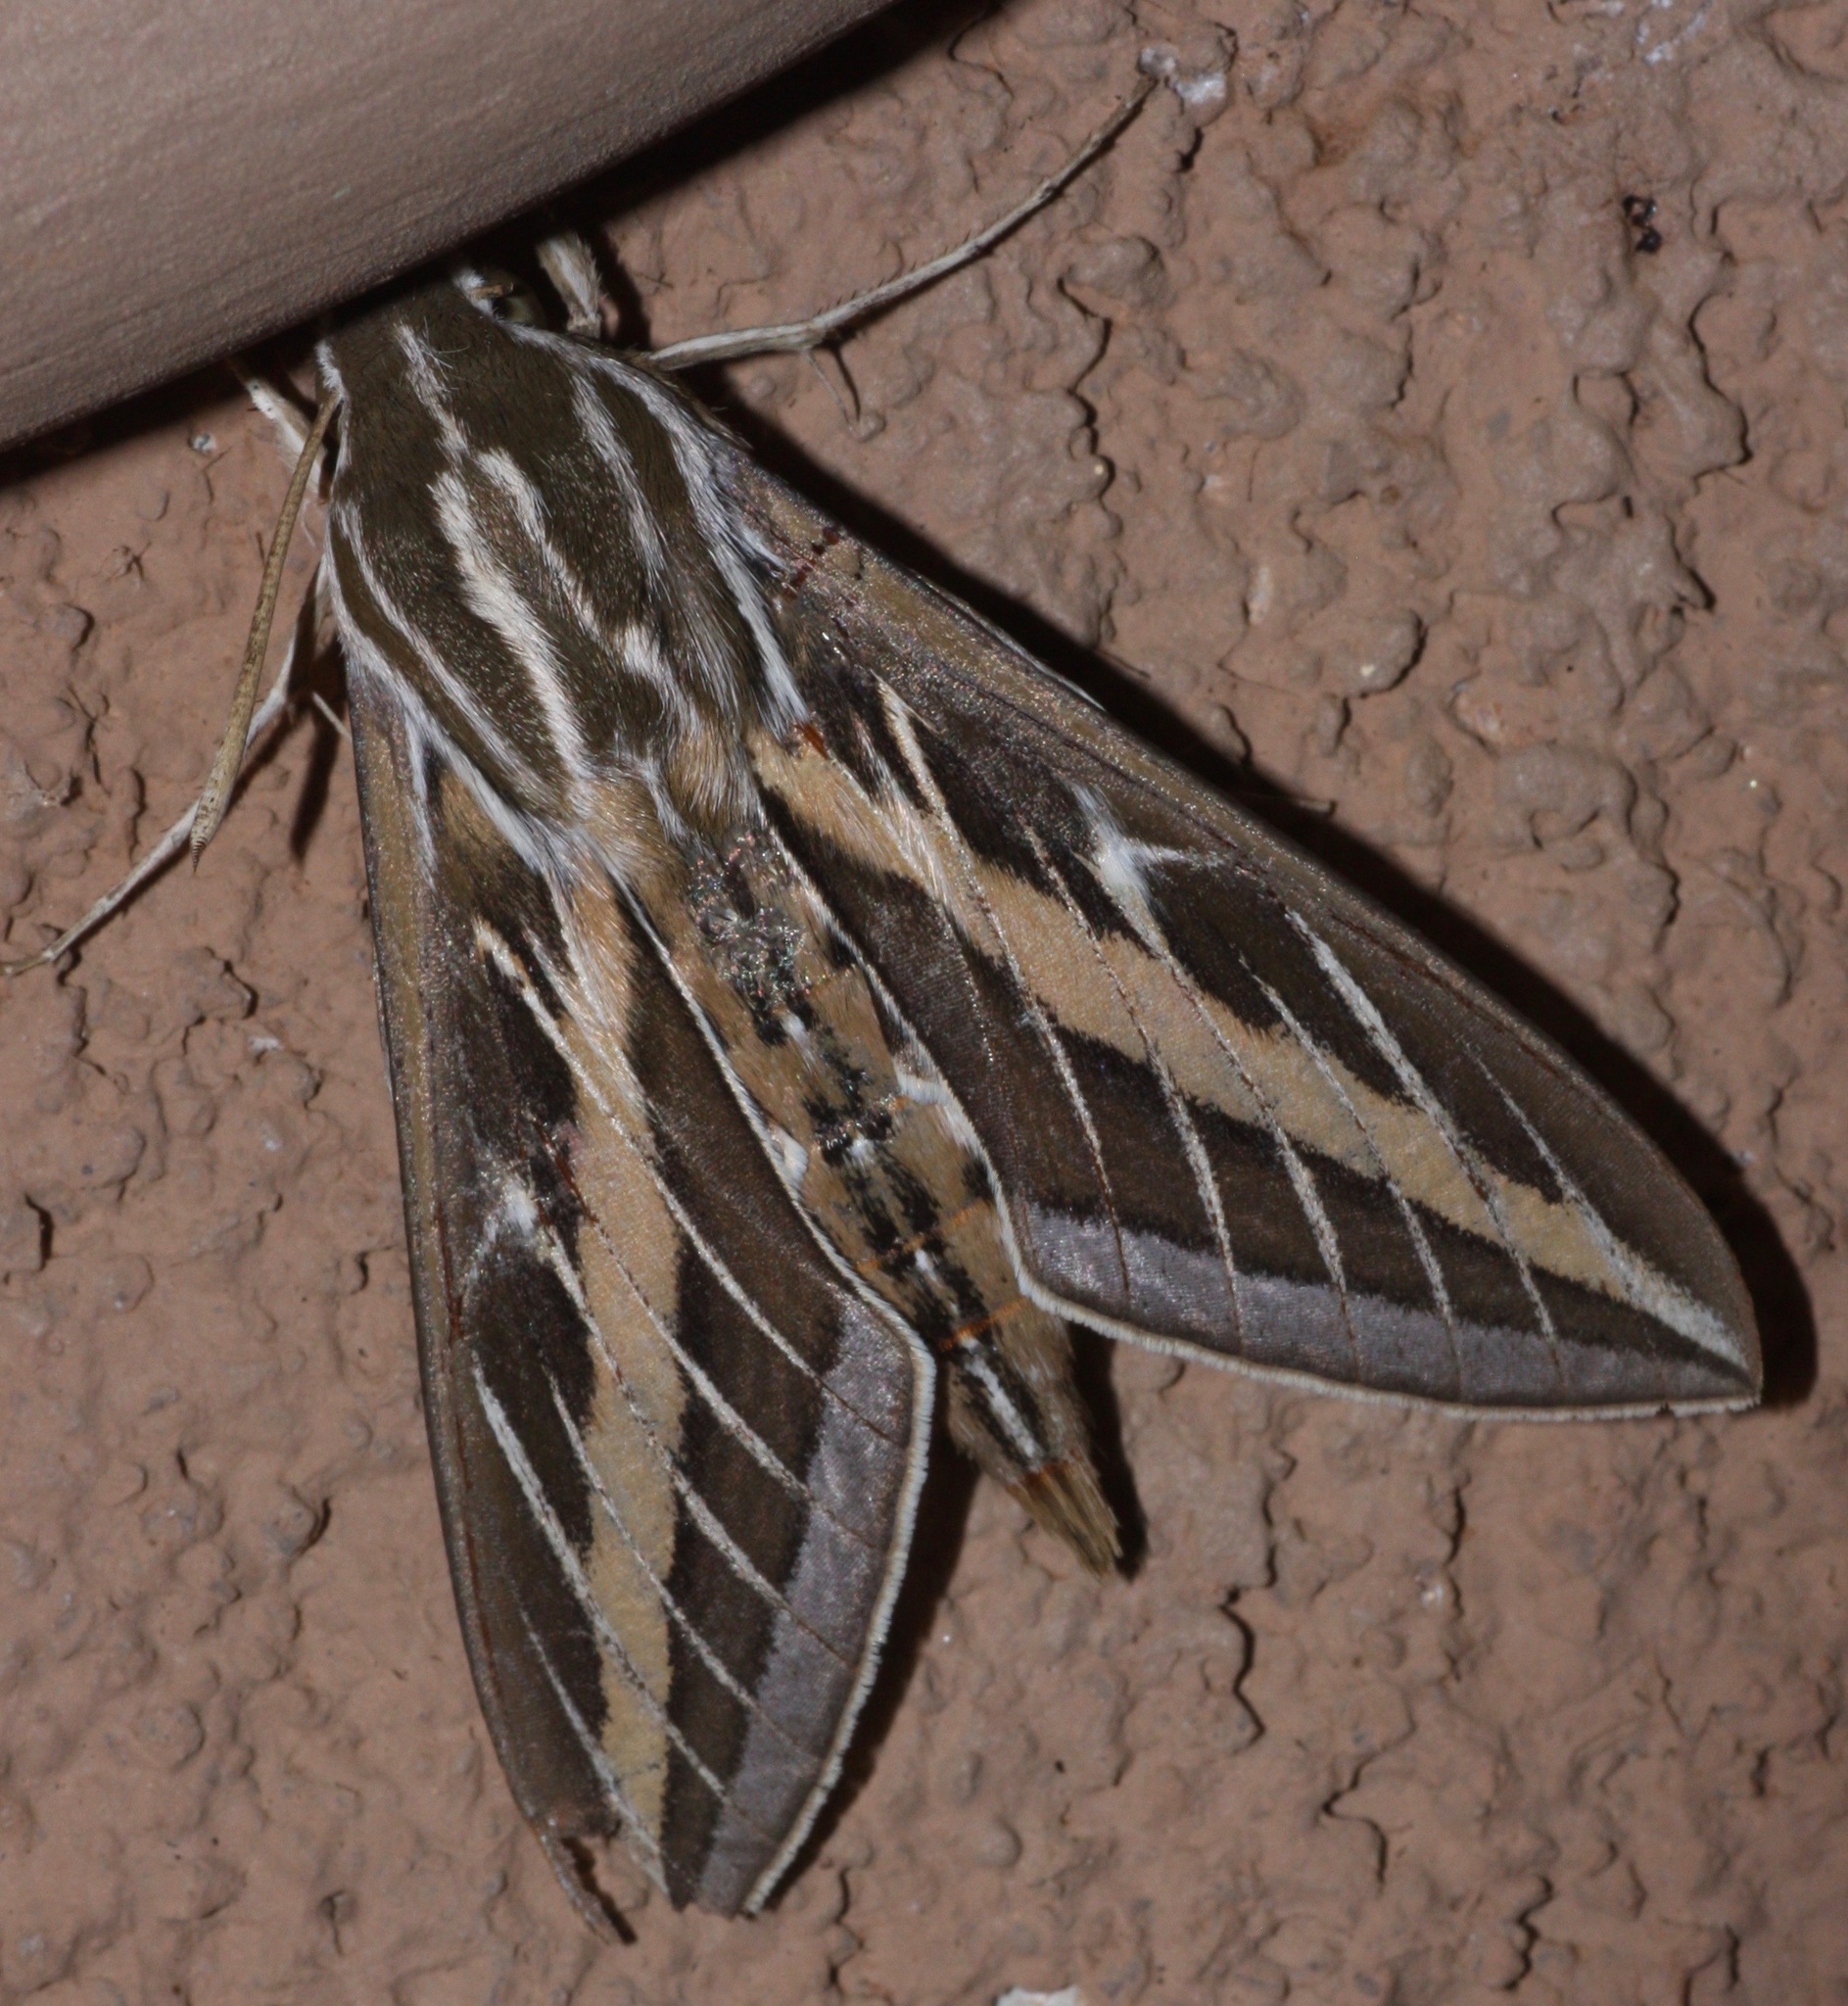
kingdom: Animalia
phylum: Arthropoda
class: Insecta
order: Lepidoptera
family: Sphingidae
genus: Hyles
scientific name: Hyles lineata
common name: White-lined sphinx
